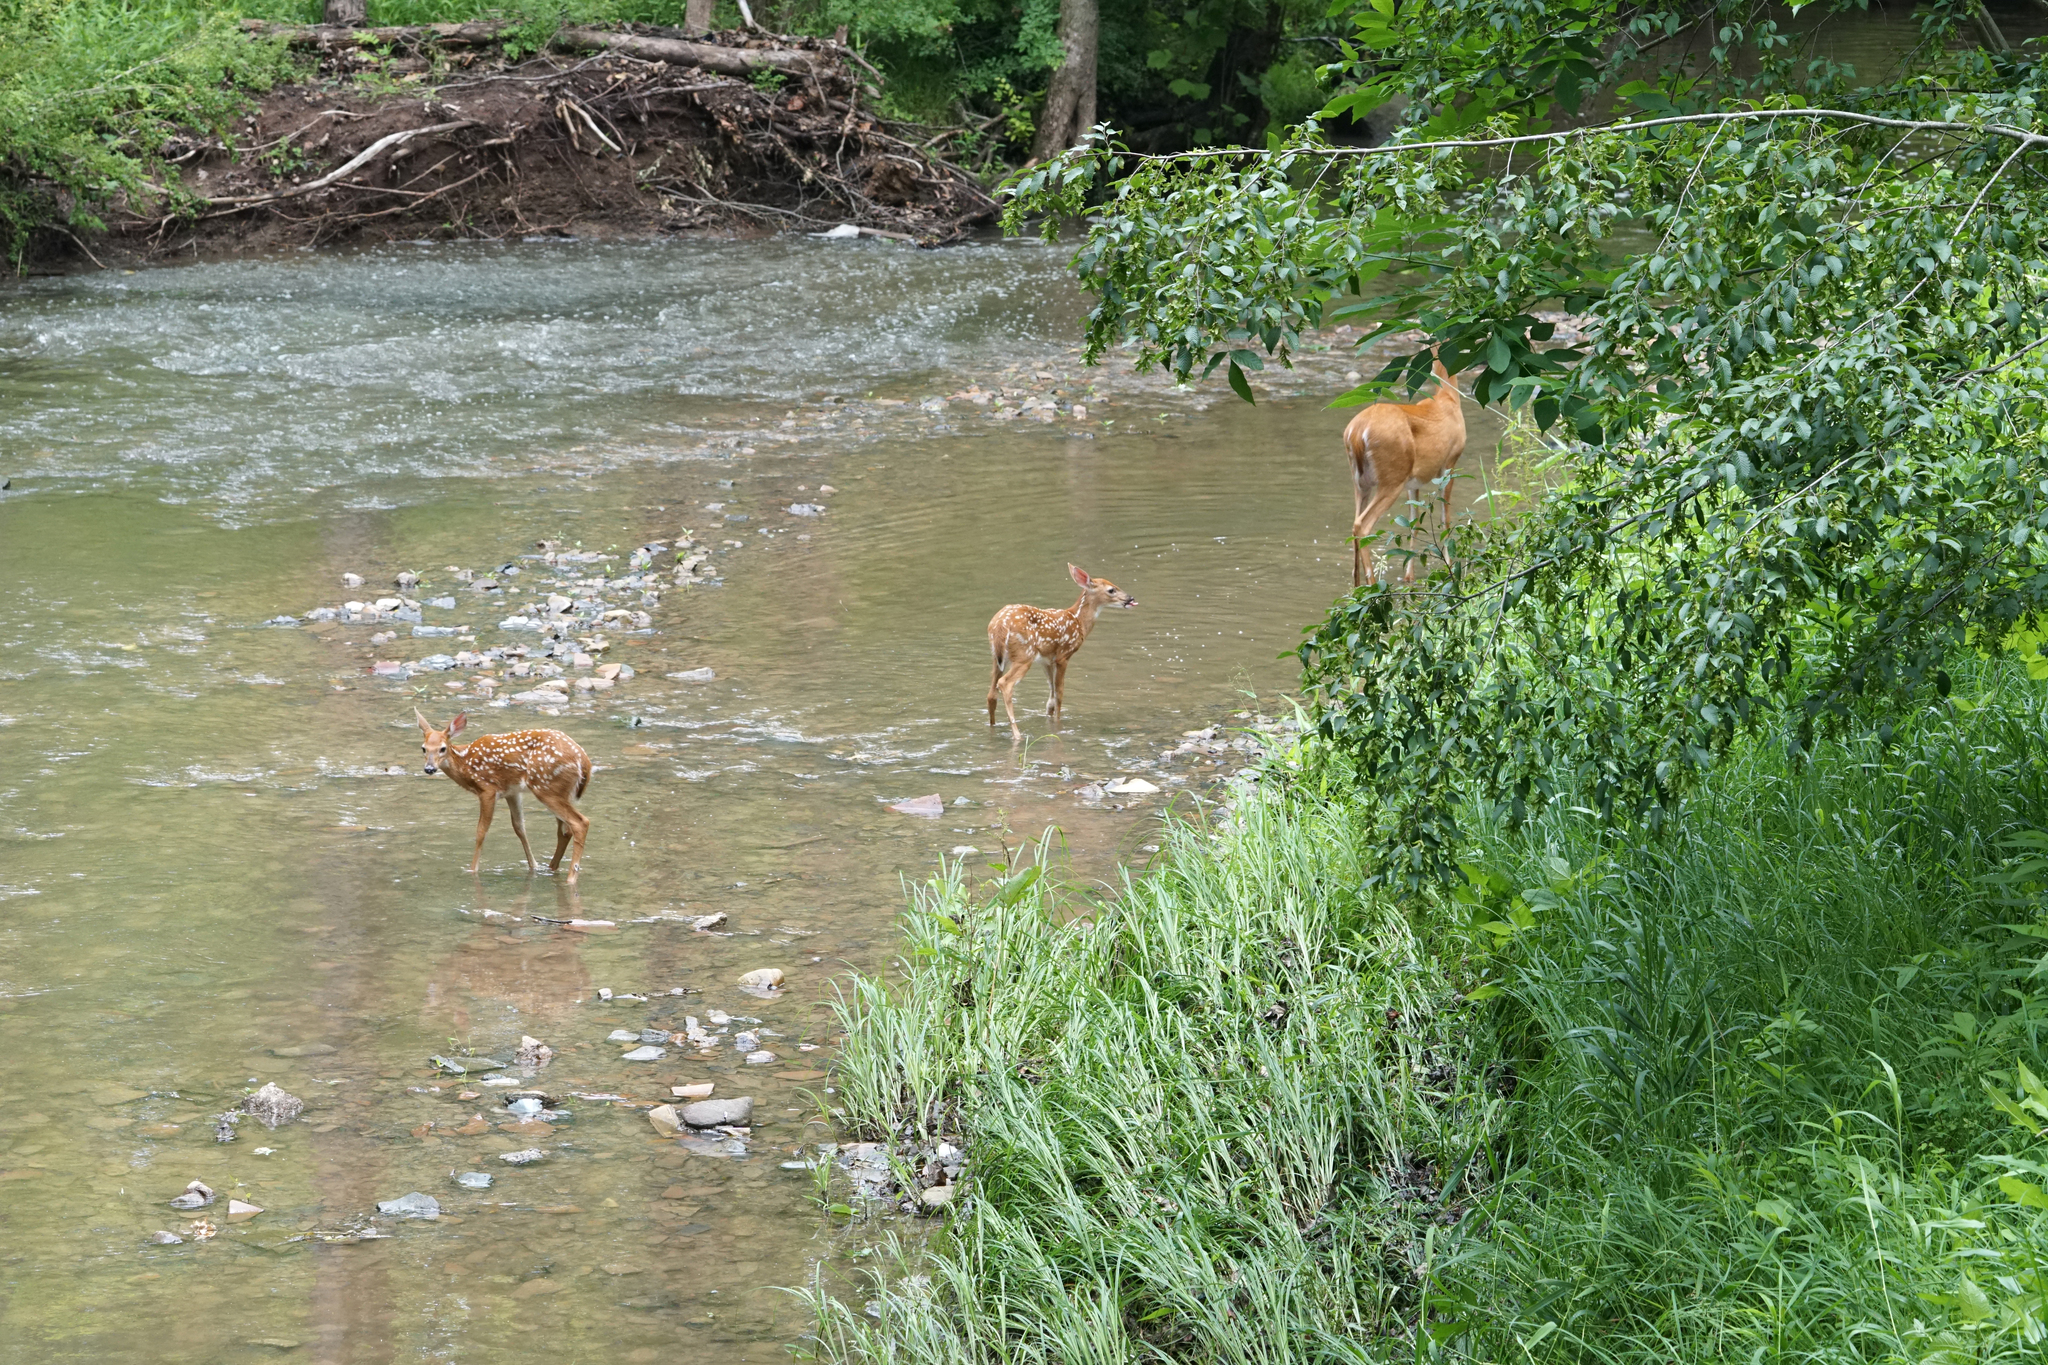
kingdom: Animalia
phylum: Chordata
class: Mammalia
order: Artiodactyla
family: Cervidae
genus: Odocoileus
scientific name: Odocoileus virginianus
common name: White-tailed deer
